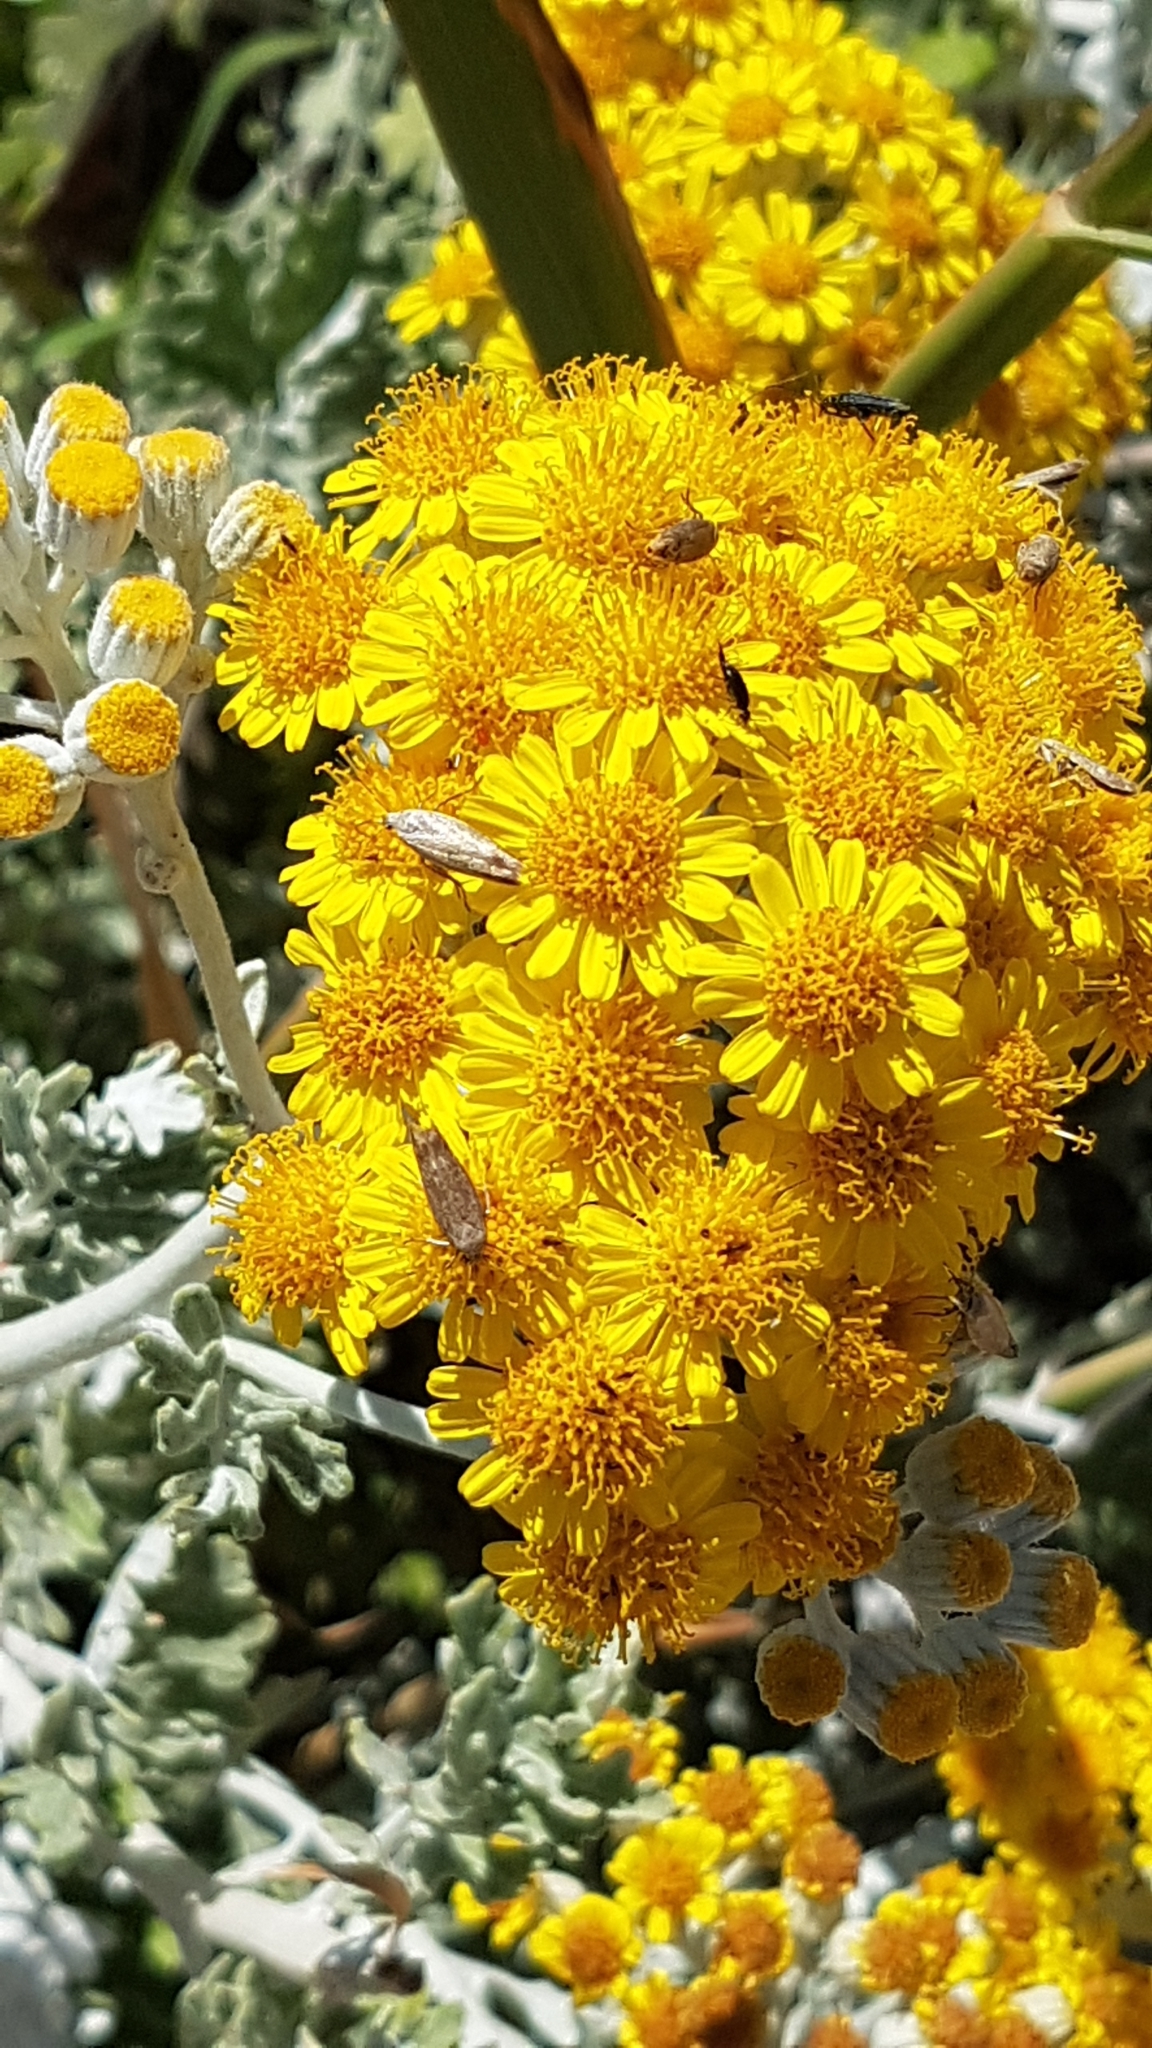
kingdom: Plantae
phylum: Tracheophyta
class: Magnoliopsida
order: Asterales
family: Asteraceae
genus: Jacobaea
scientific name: Jacobaea maritima
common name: Silver ragwort
